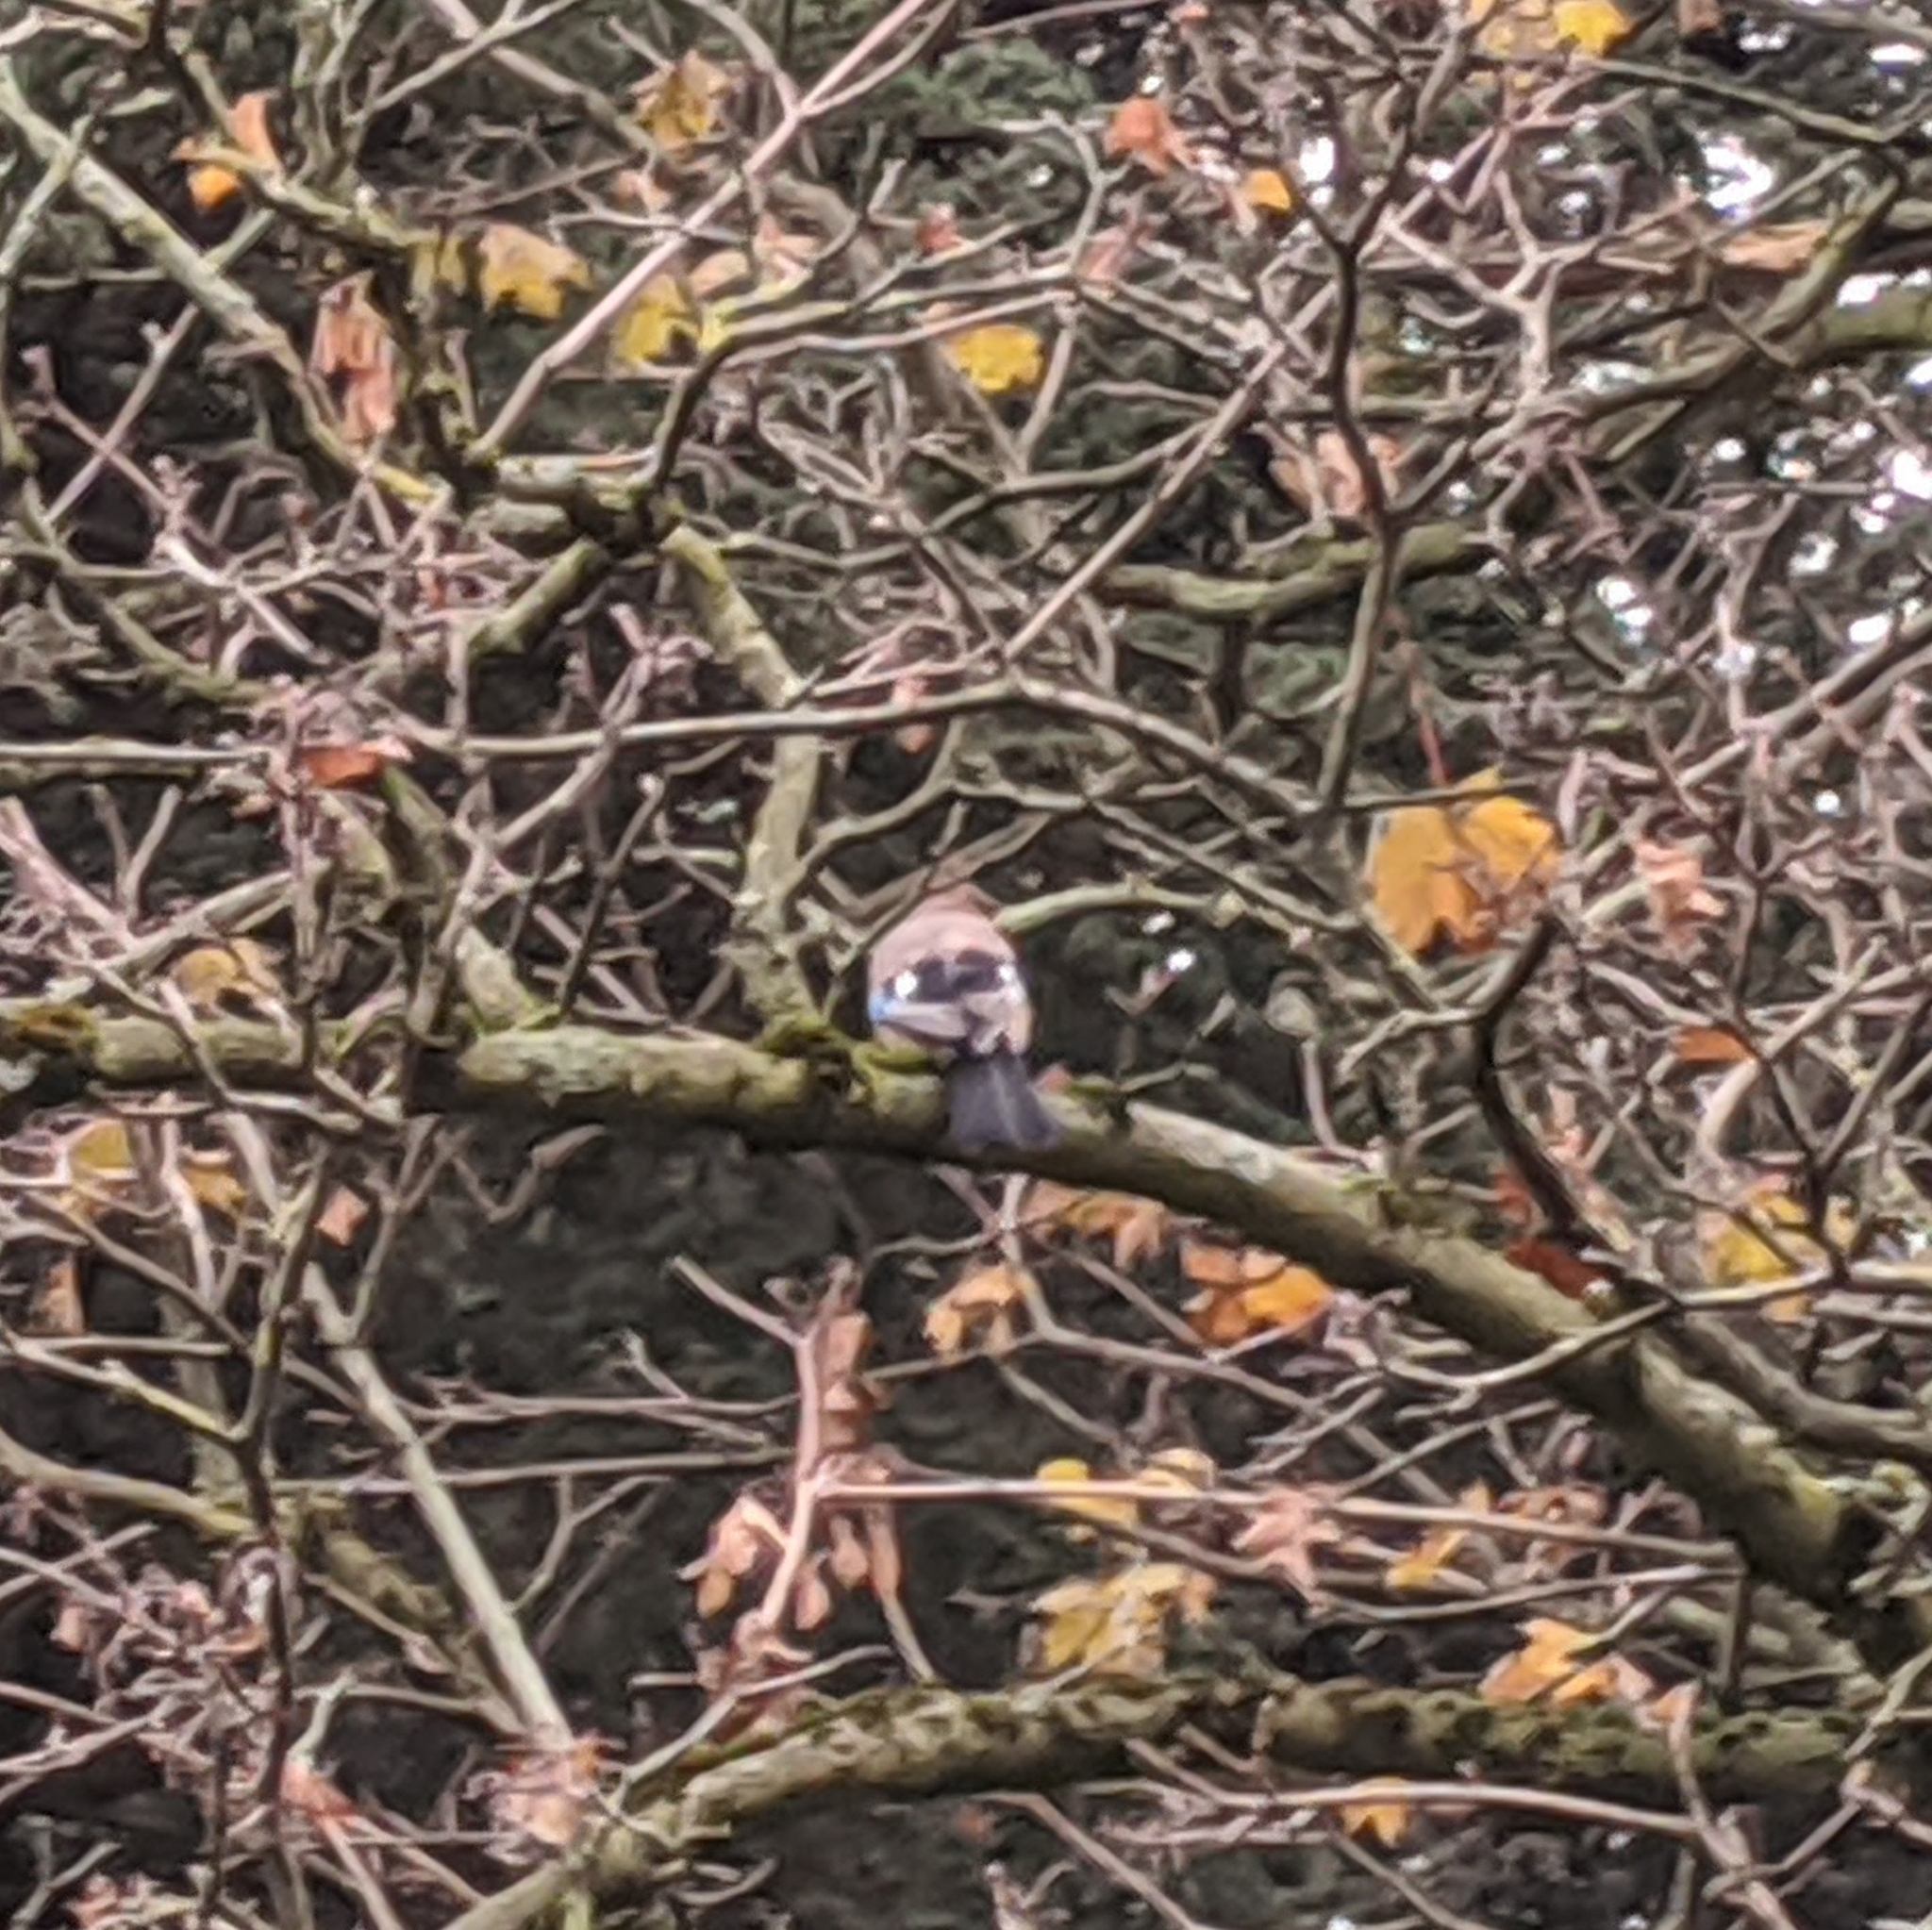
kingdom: Animalia
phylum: Chordata
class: Aves
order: Passeriformes
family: Corvidae
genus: Garrulus
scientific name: Garrulus glandarius
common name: Eurasian jay
